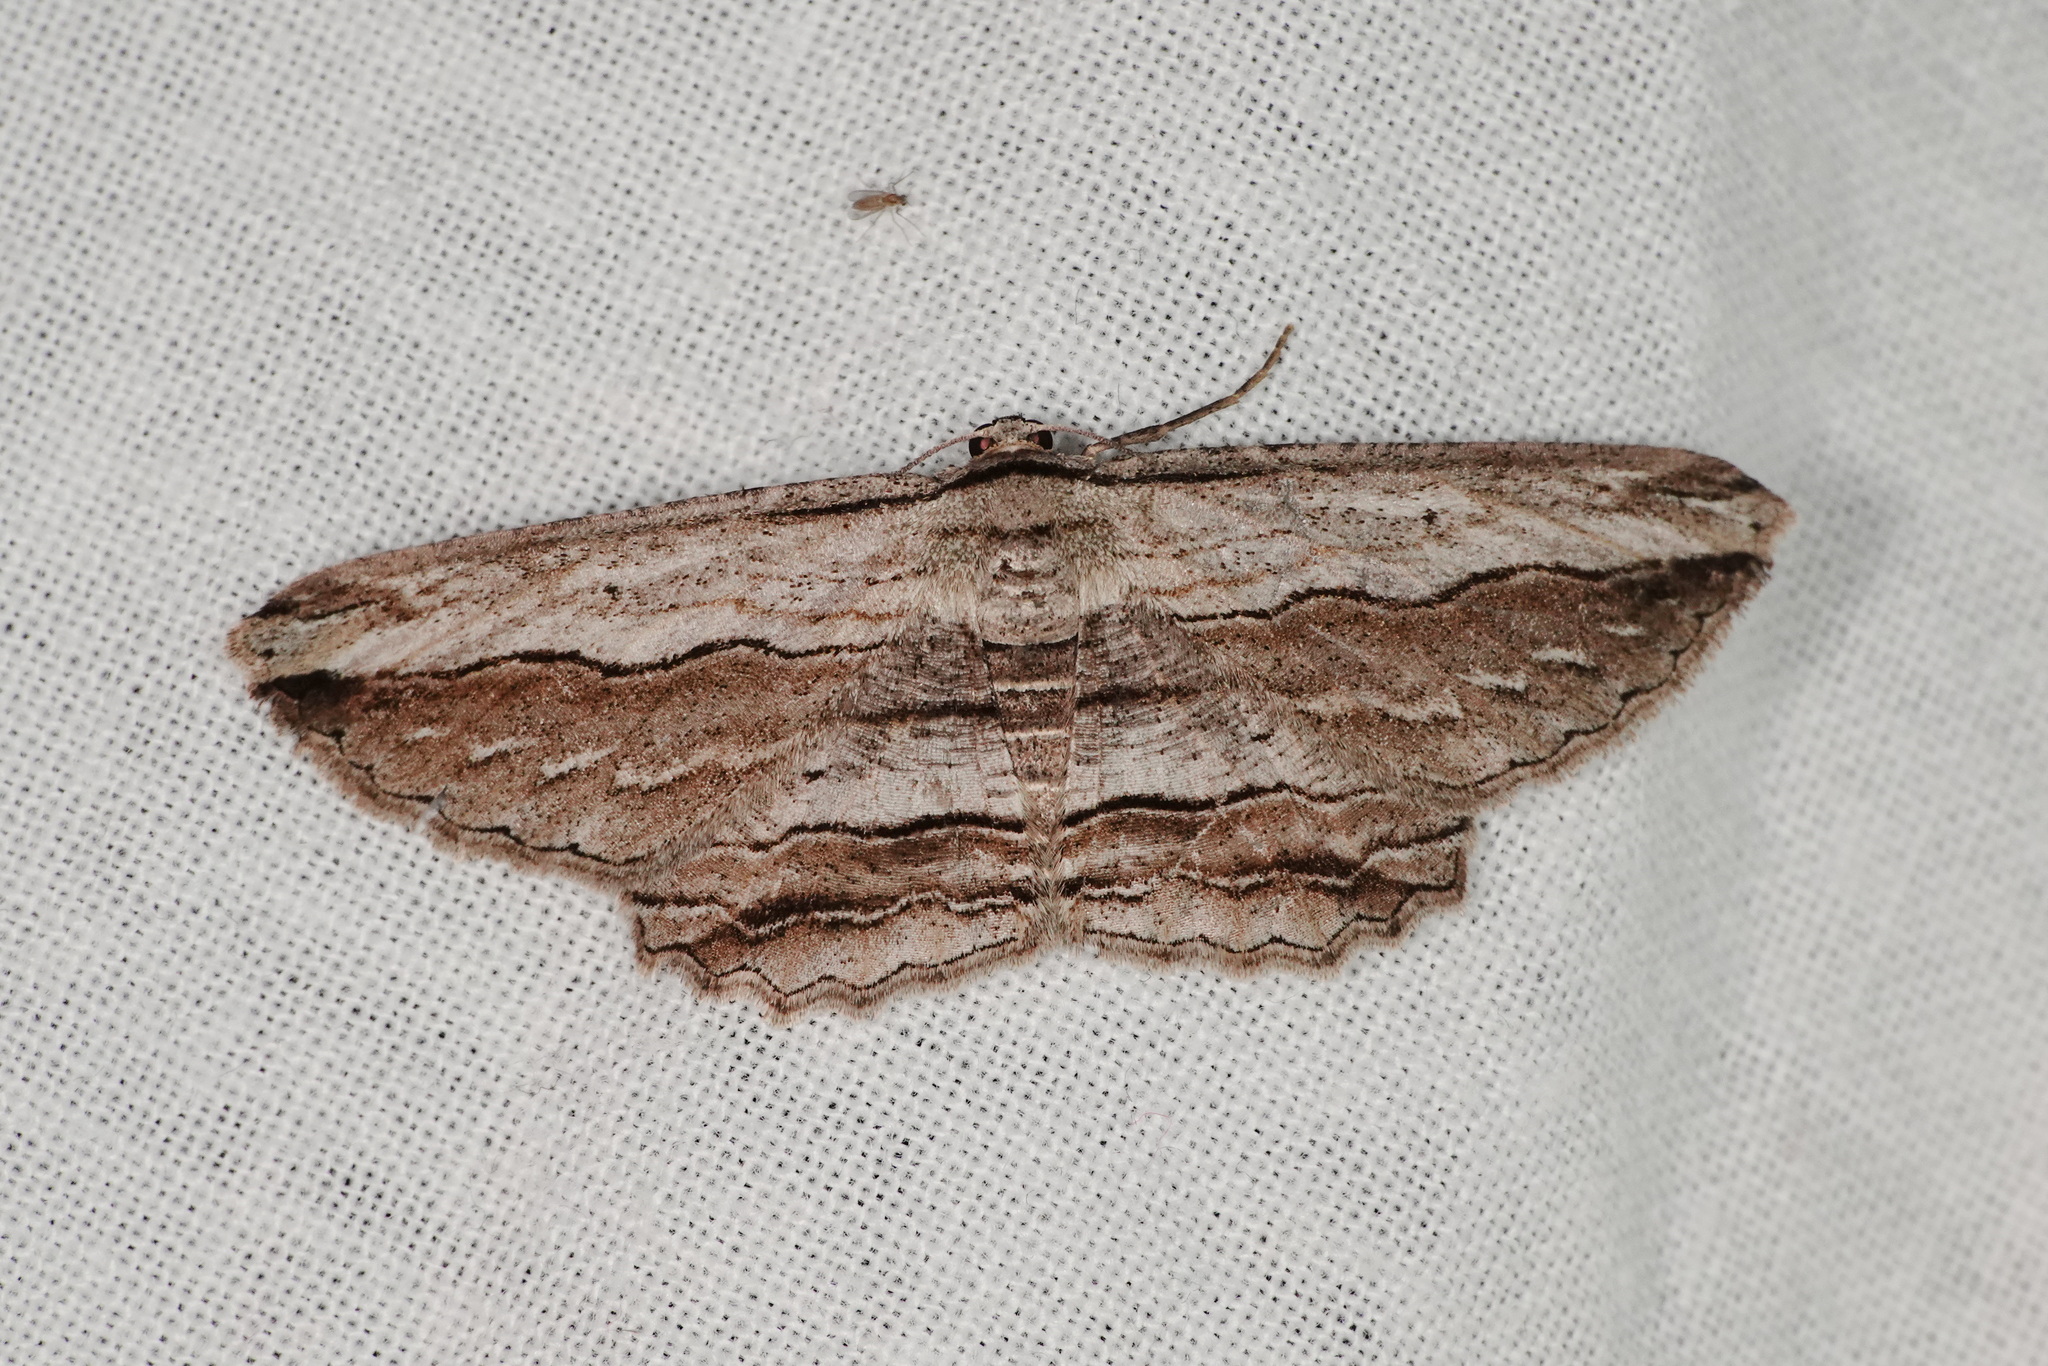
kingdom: Animalia
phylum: Arthropoda
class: Insecta
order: Lepidoptera
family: Geometridae
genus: Euphronarcha
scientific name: Euphronarcha luxaria
